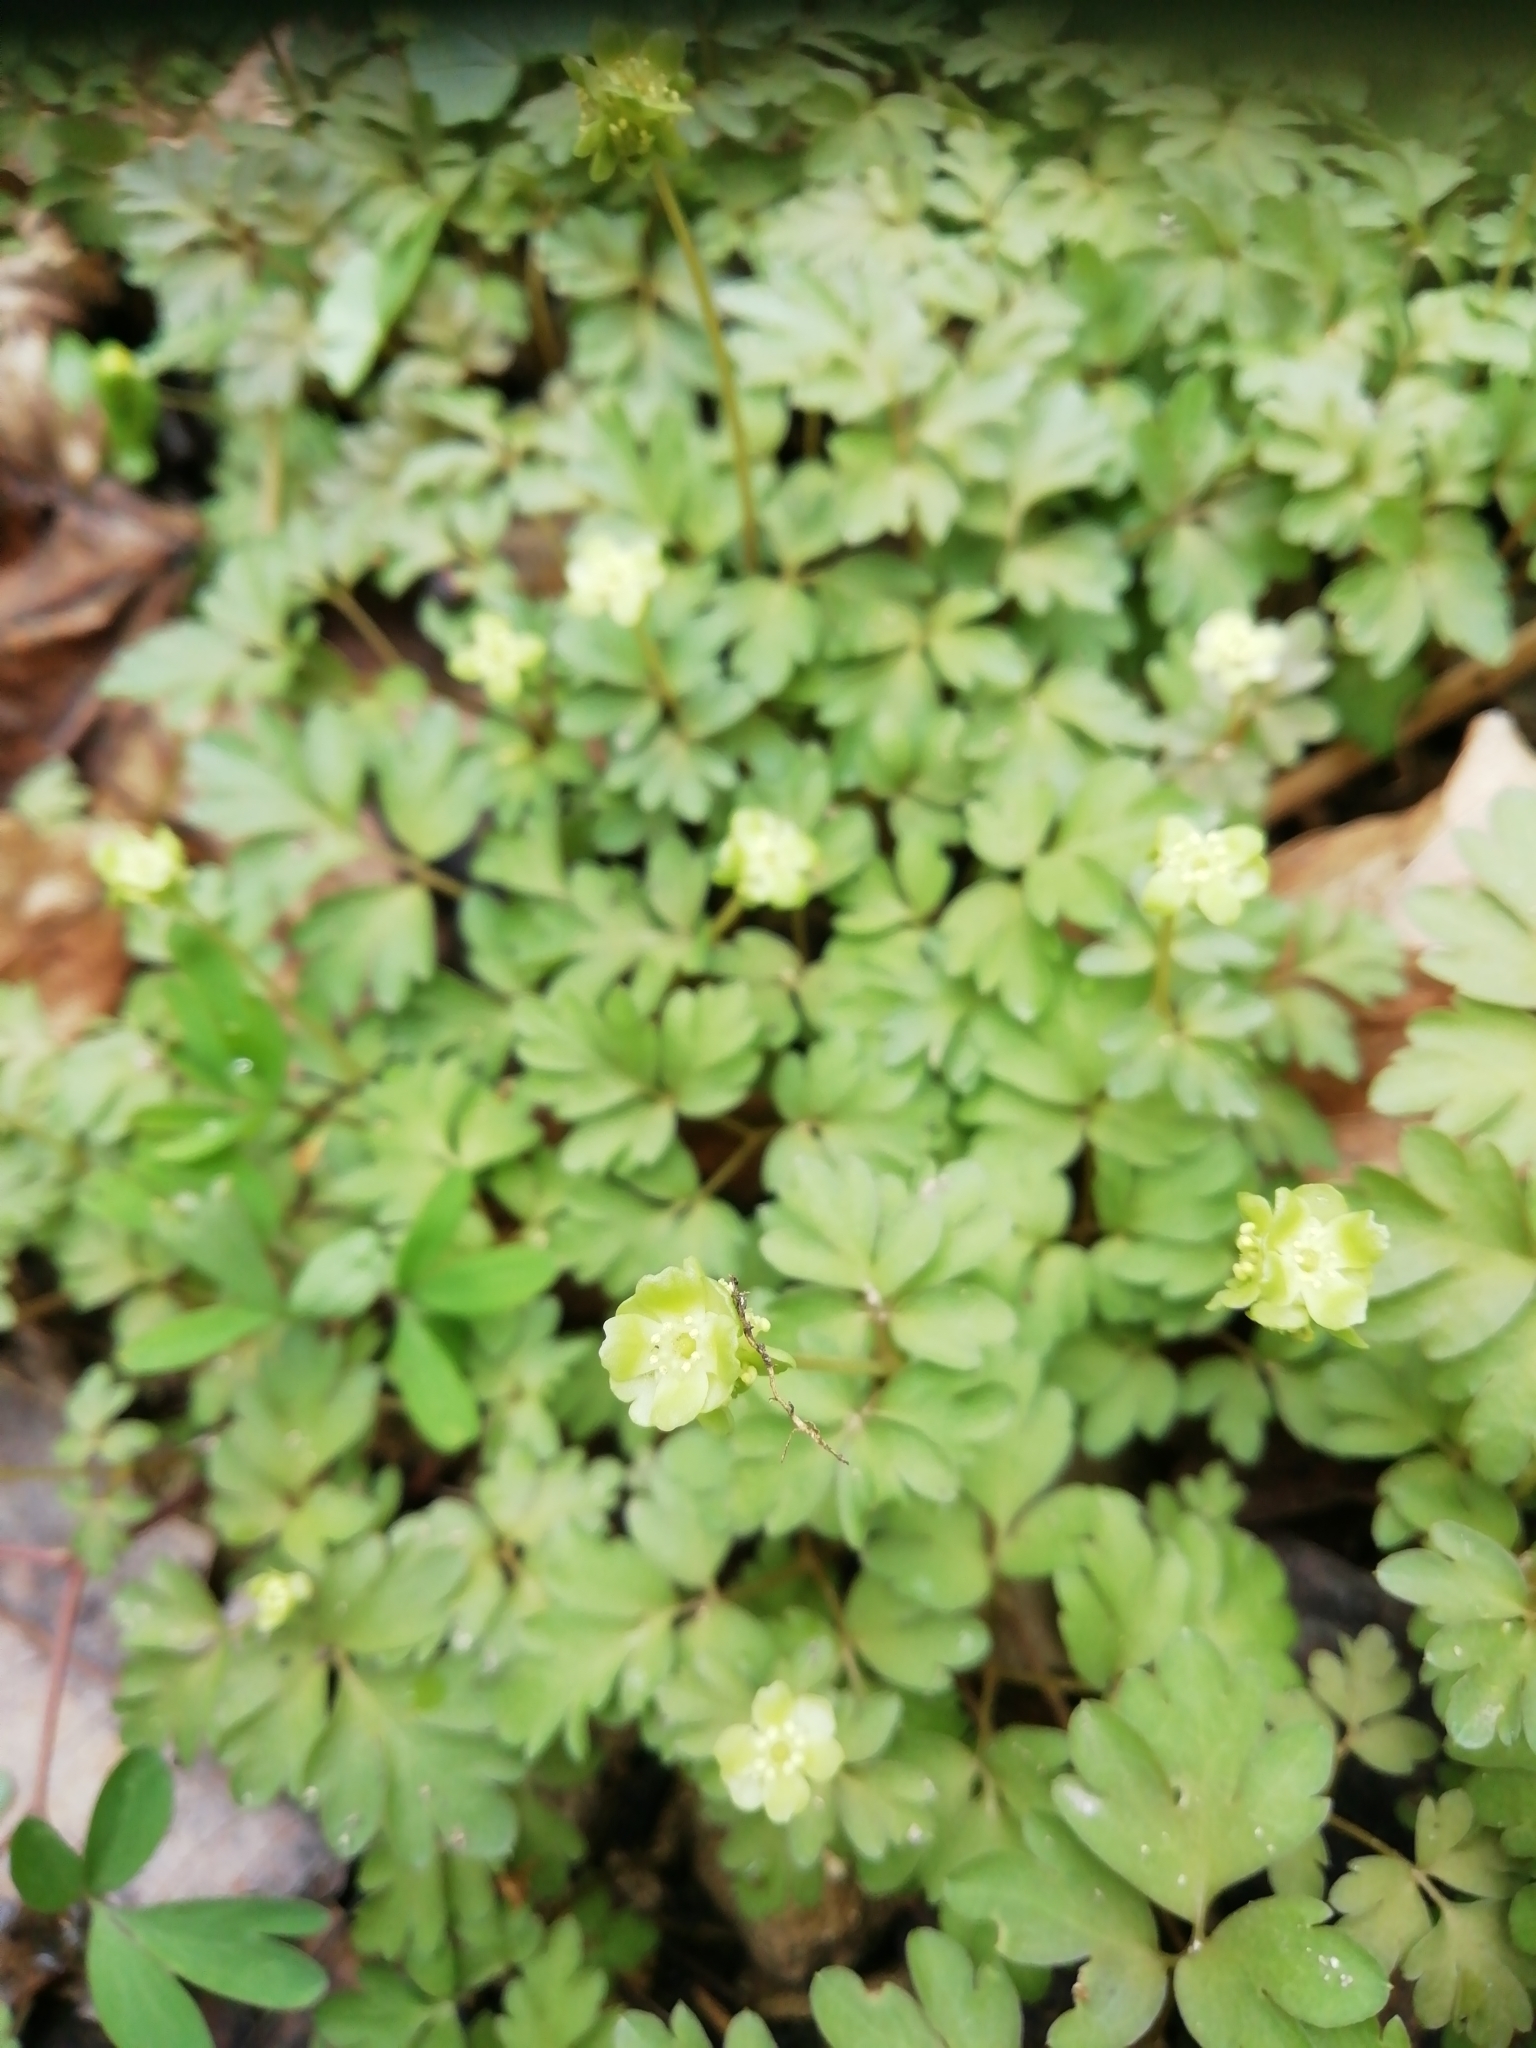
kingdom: Plantae
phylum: Tracheophyta
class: Magnoliopsida
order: Dipsacales
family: Viburnaceae
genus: Adoxa
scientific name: Adoxa moschatellina
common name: Moschatel
